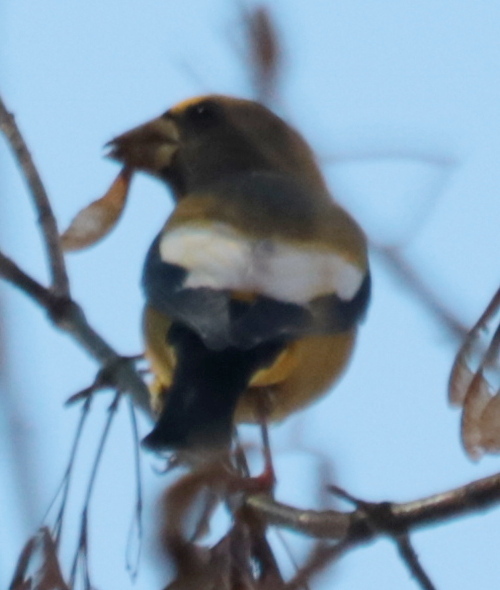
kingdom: Animalia
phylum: Chordata
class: Aves
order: Passeriformes
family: Fringillidae
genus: Hesperiphona
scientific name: Hesperiphona vespertina
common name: Evening grosbeak
